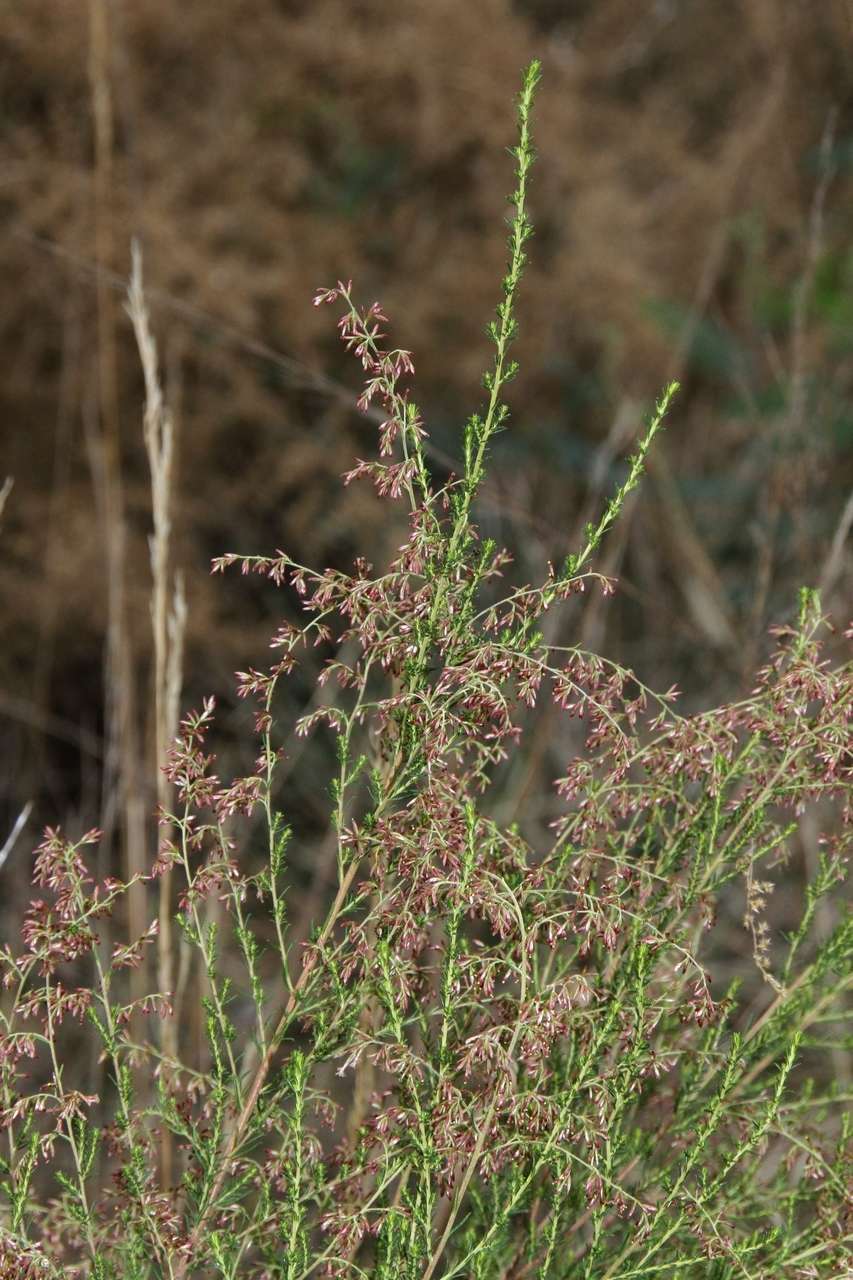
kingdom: Plantae
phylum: Tracheophyta
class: Magnoliopsida
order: Asterales
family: Asteraceae
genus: Cassinia
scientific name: Cassinia sifton
